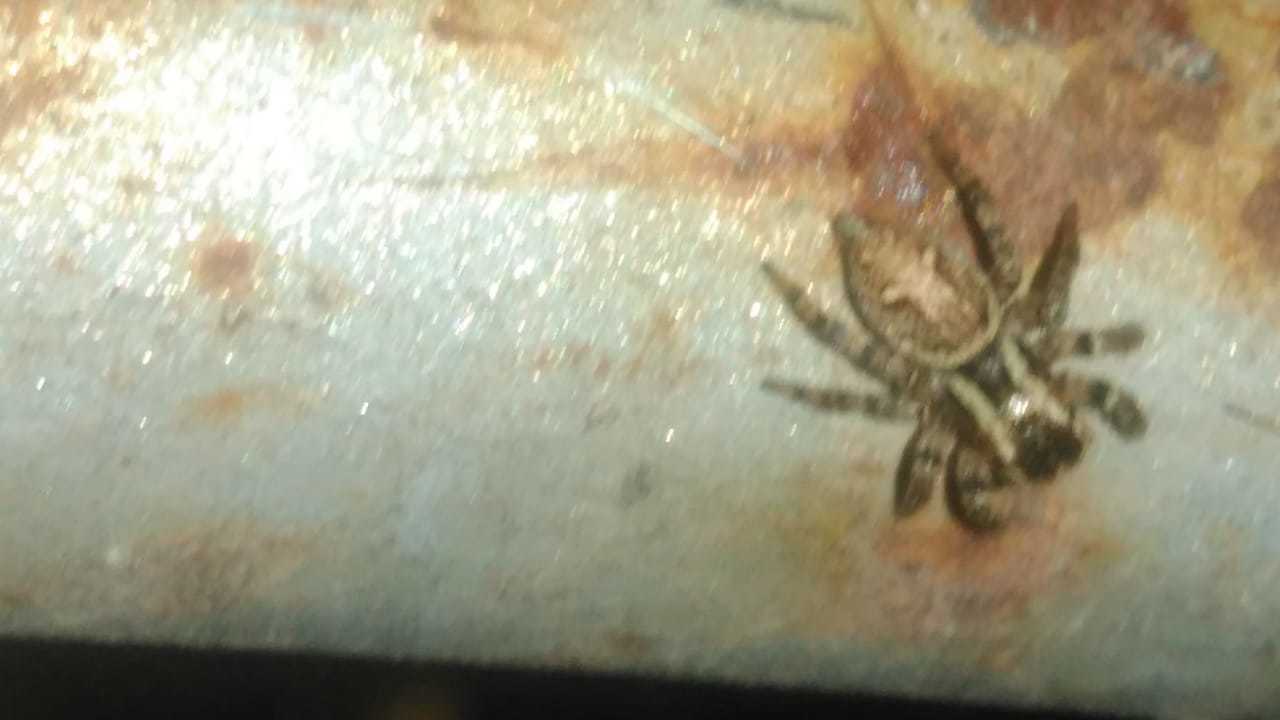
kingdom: Animalia
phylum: Arthropoda
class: Arachnida
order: Araneae
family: Salticidae
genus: Aphirape
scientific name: Aphirape
